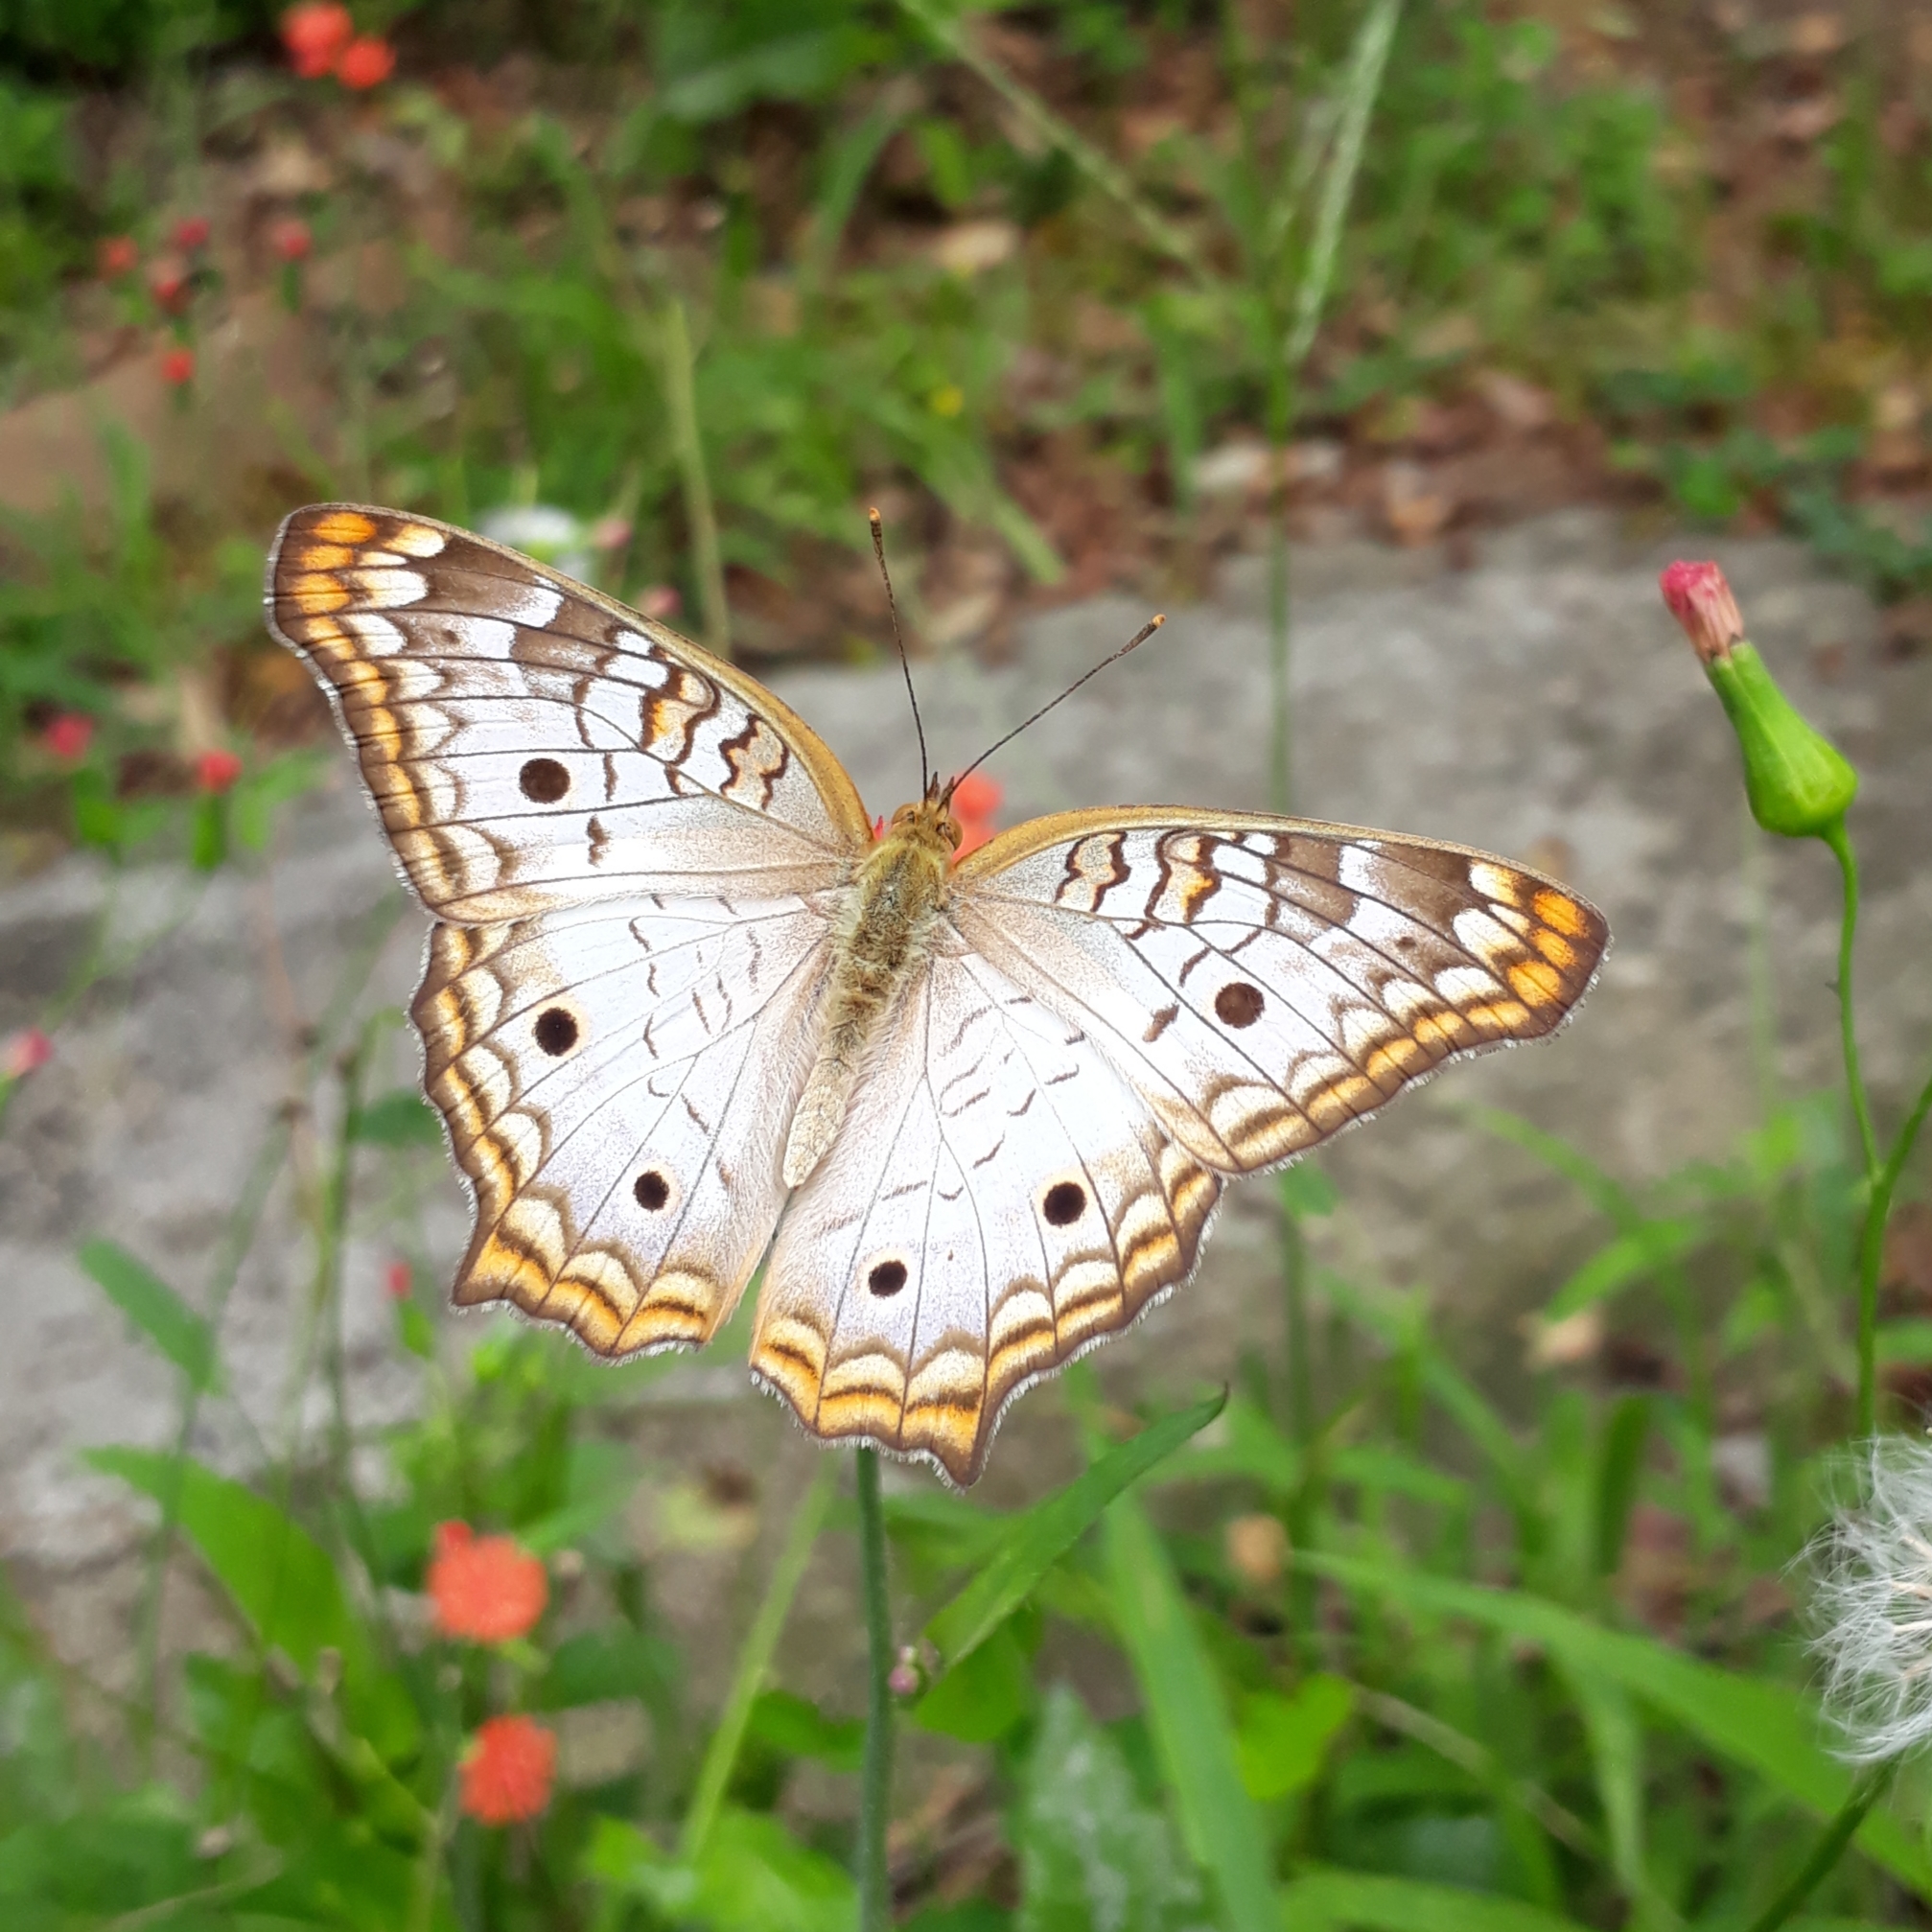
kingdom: Animalia
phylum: Arthropoda
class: Insecta
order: Lepidoptera
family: Nymphalidae
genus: Anartia
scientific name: Anartia jatrophae
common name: White peacock
